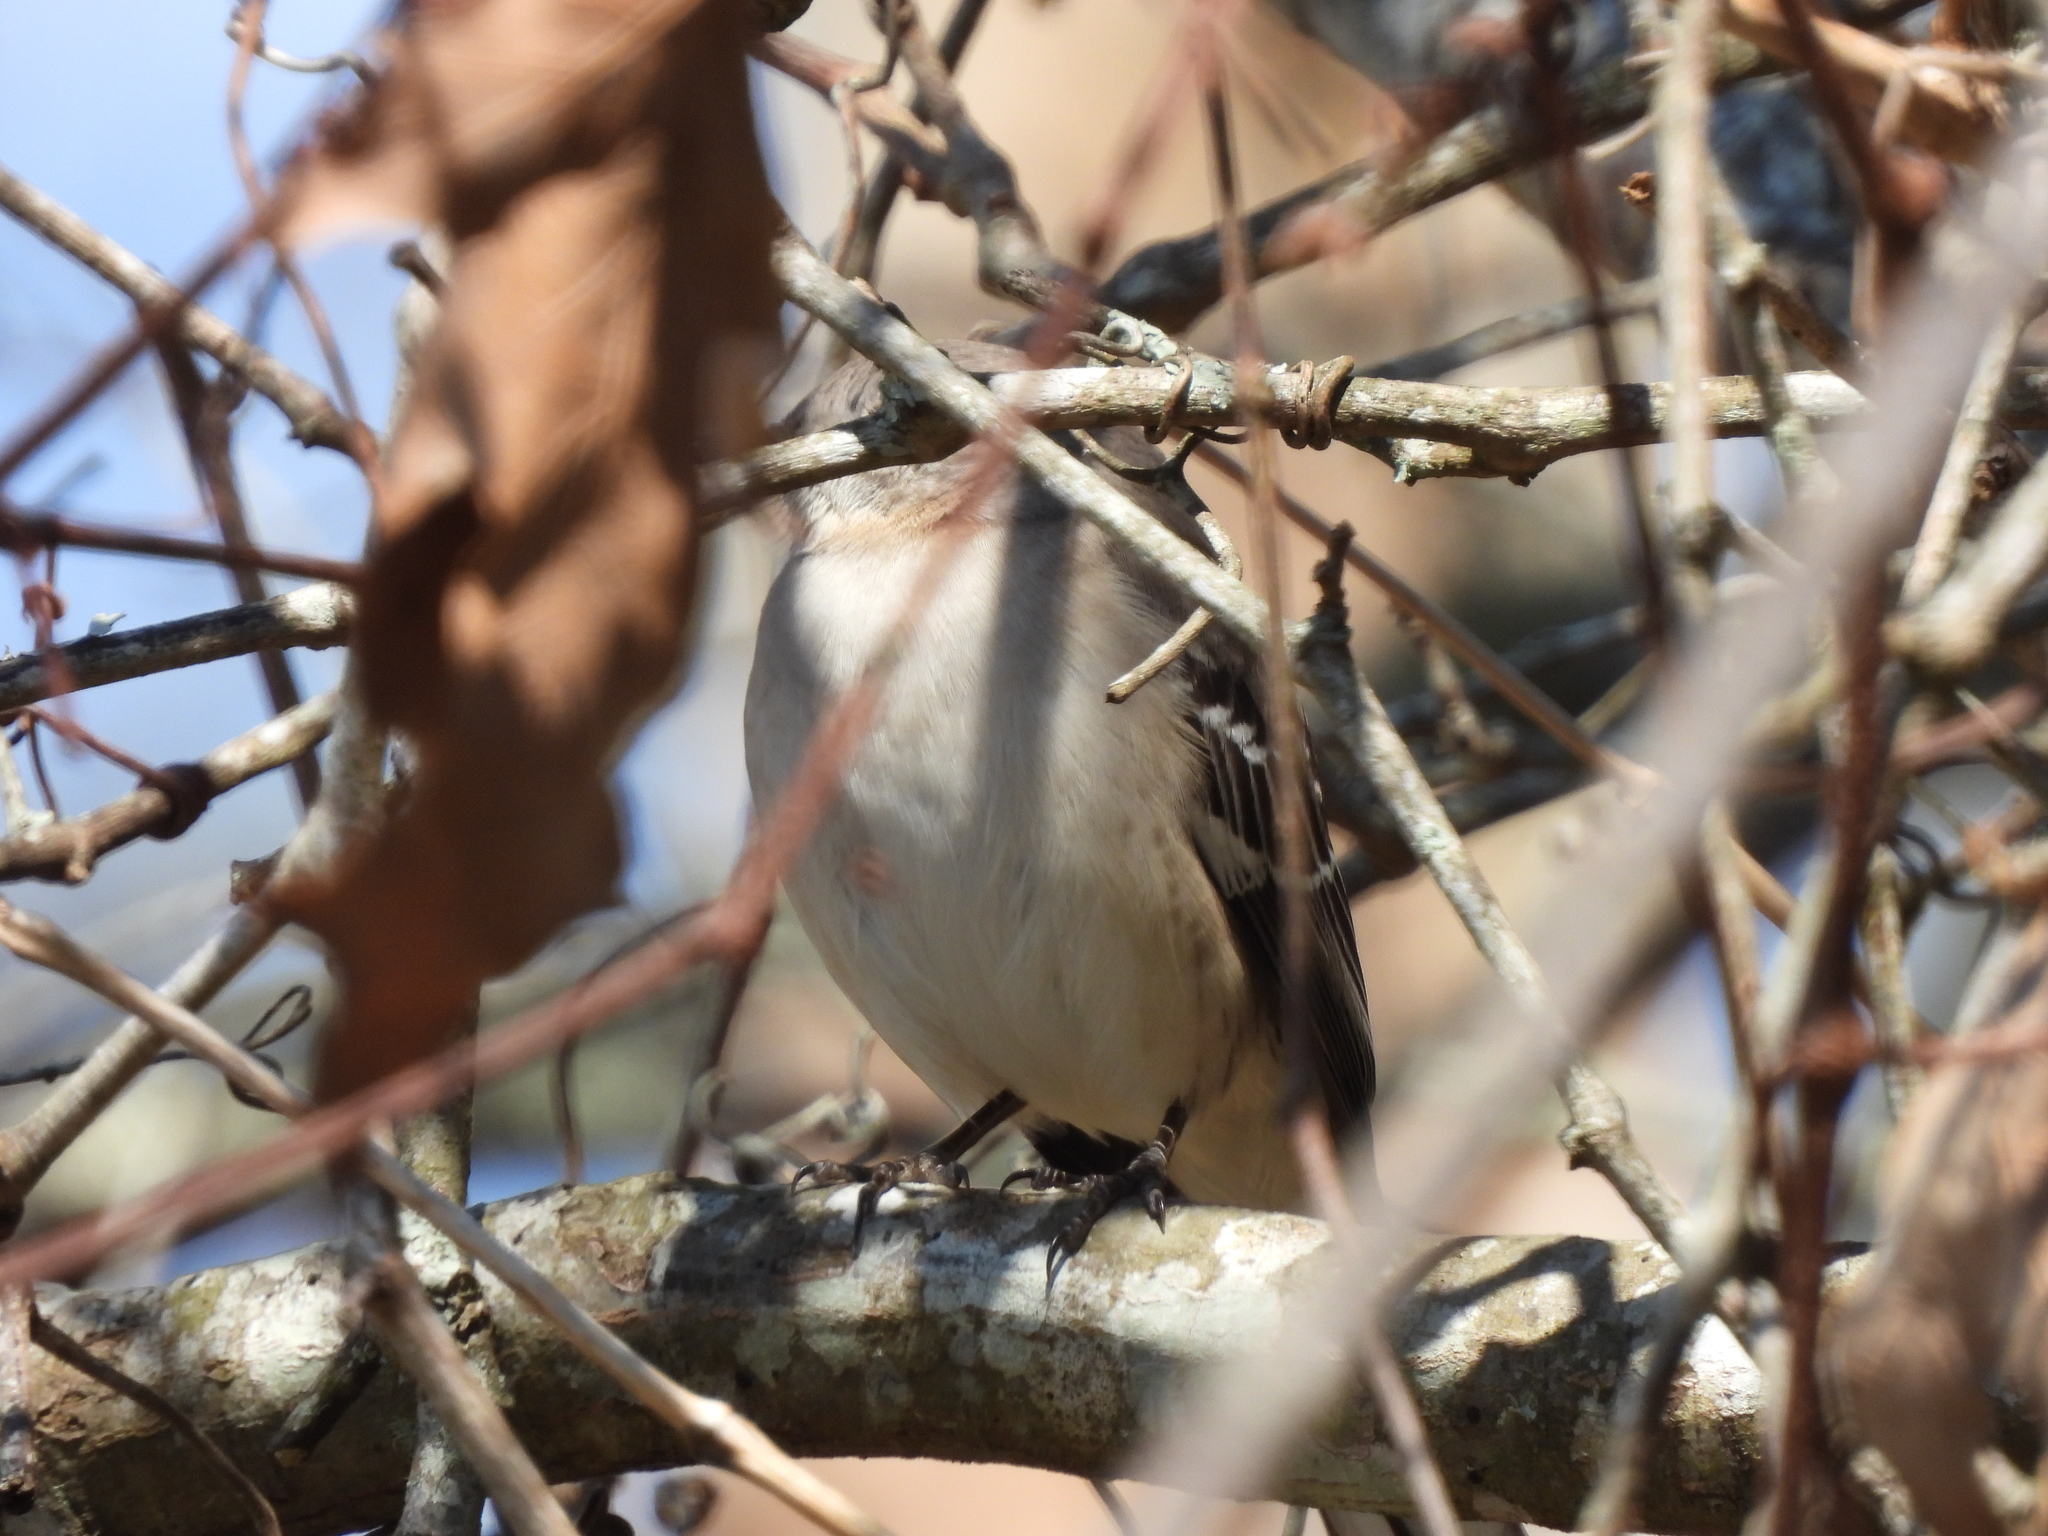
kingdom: Animalia
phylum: Chordata
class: Aves
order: Passeriformes
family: Mimidae
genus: Mimus
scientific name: Mimus polyglottos
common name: Northern mockingbird
